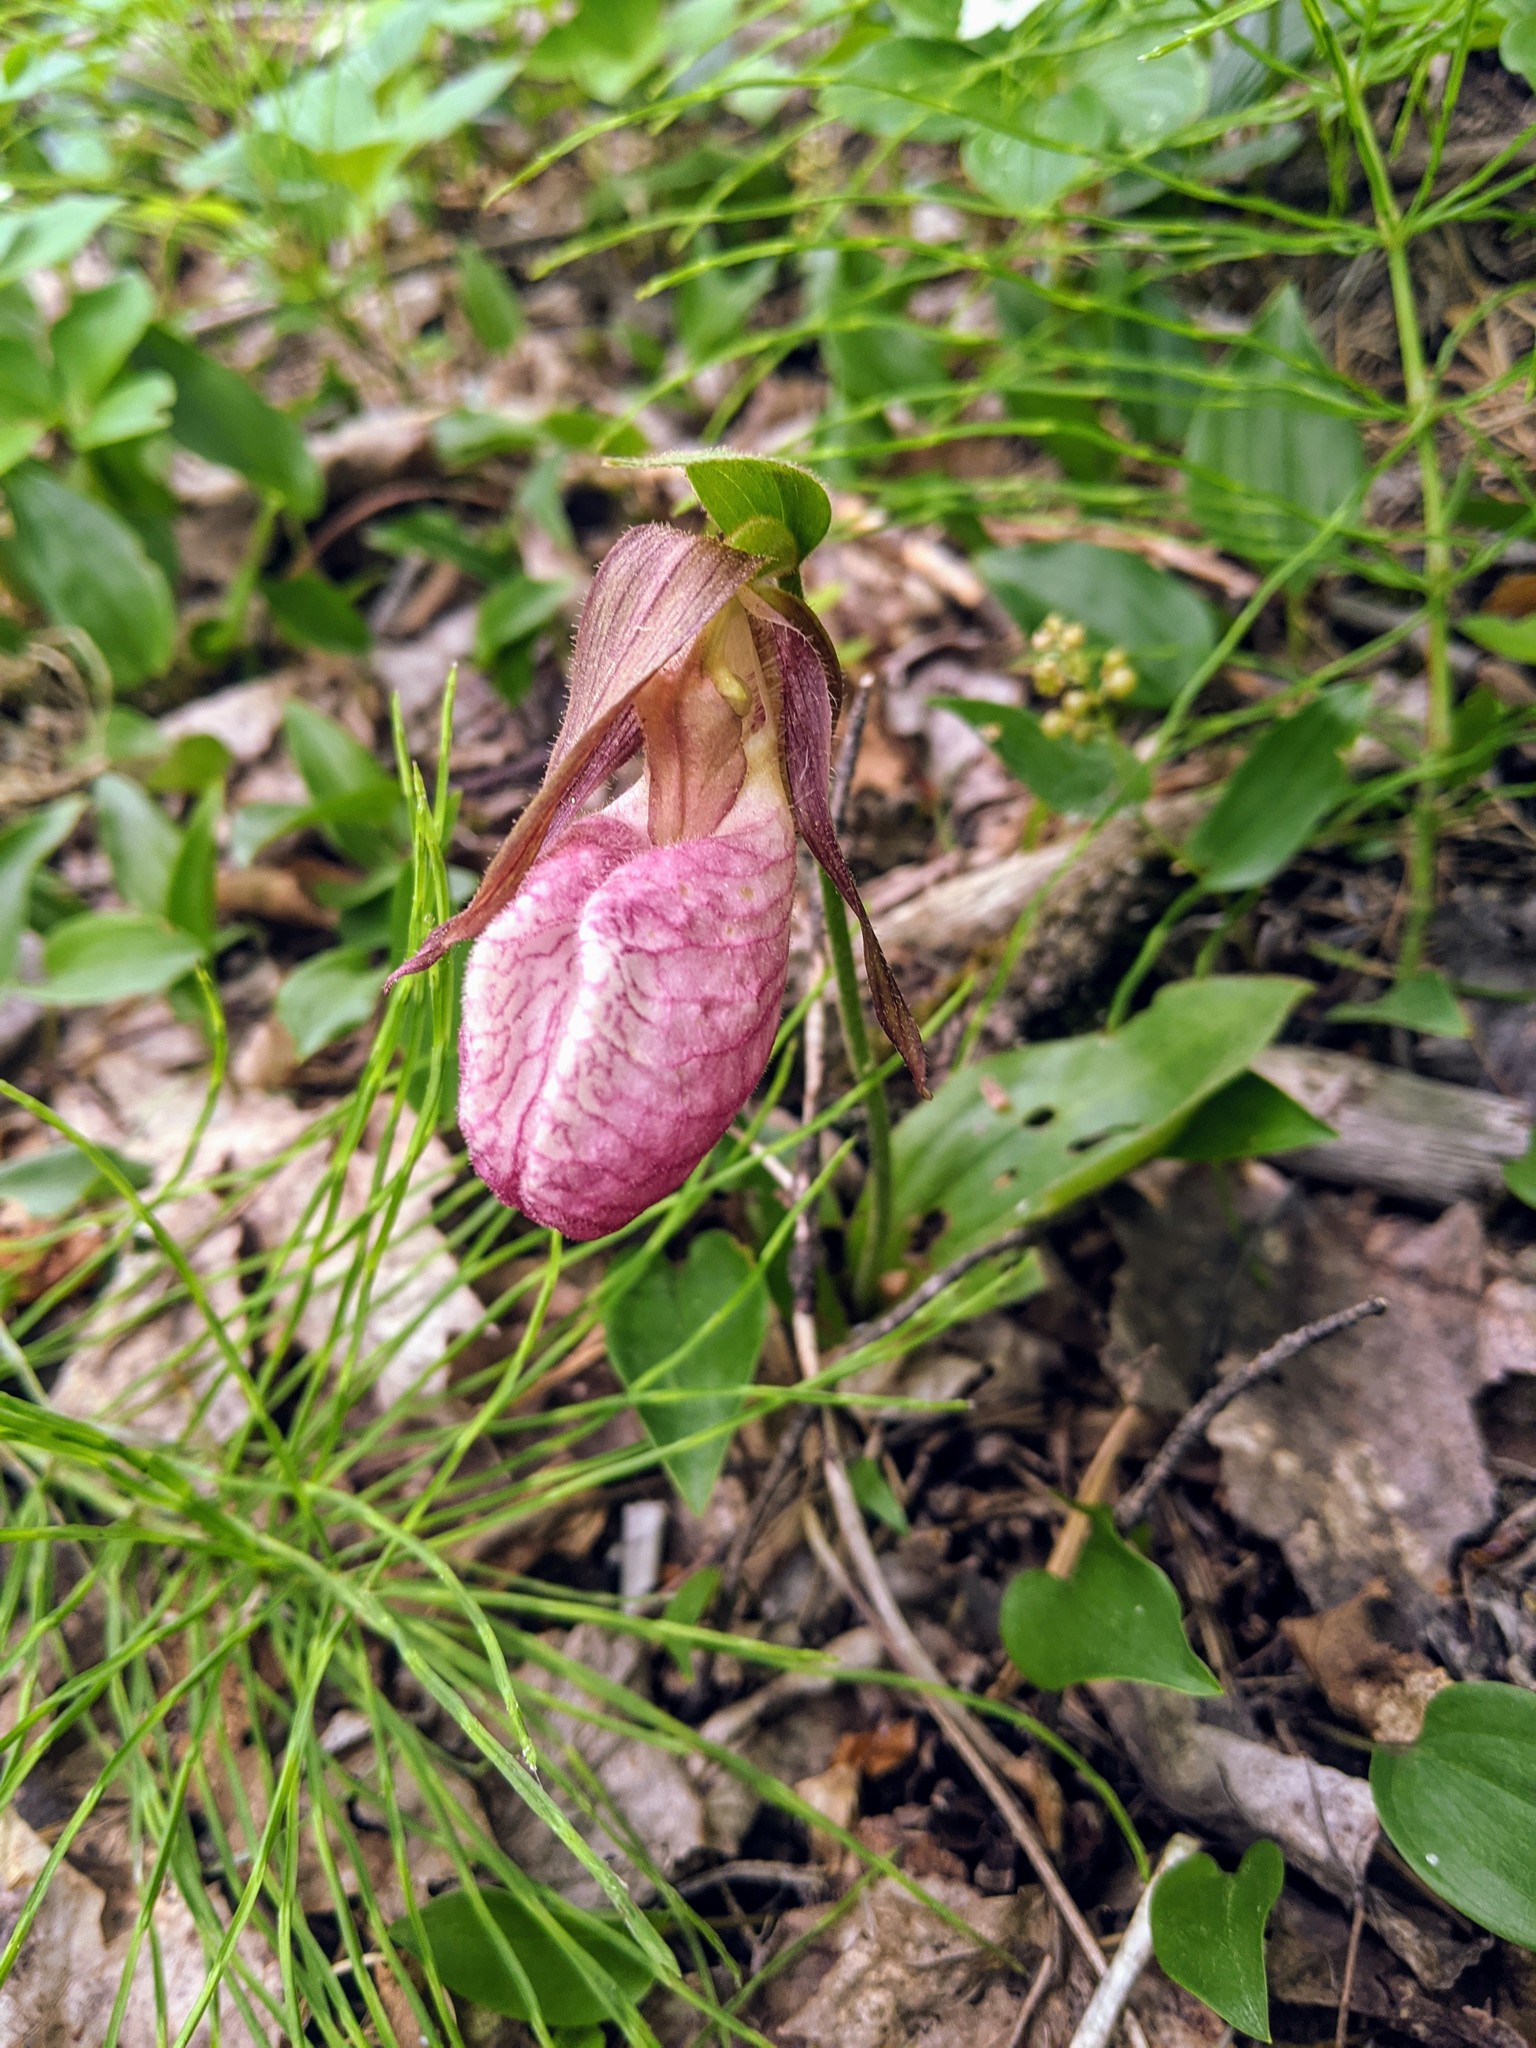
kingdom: Plantae
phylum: Tracheophyta
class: Liliopsida
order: Asparagales
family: Orchidaceae
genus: Cypripedium
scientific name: Cypripedium acaule
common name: Pink lady's-slipper
